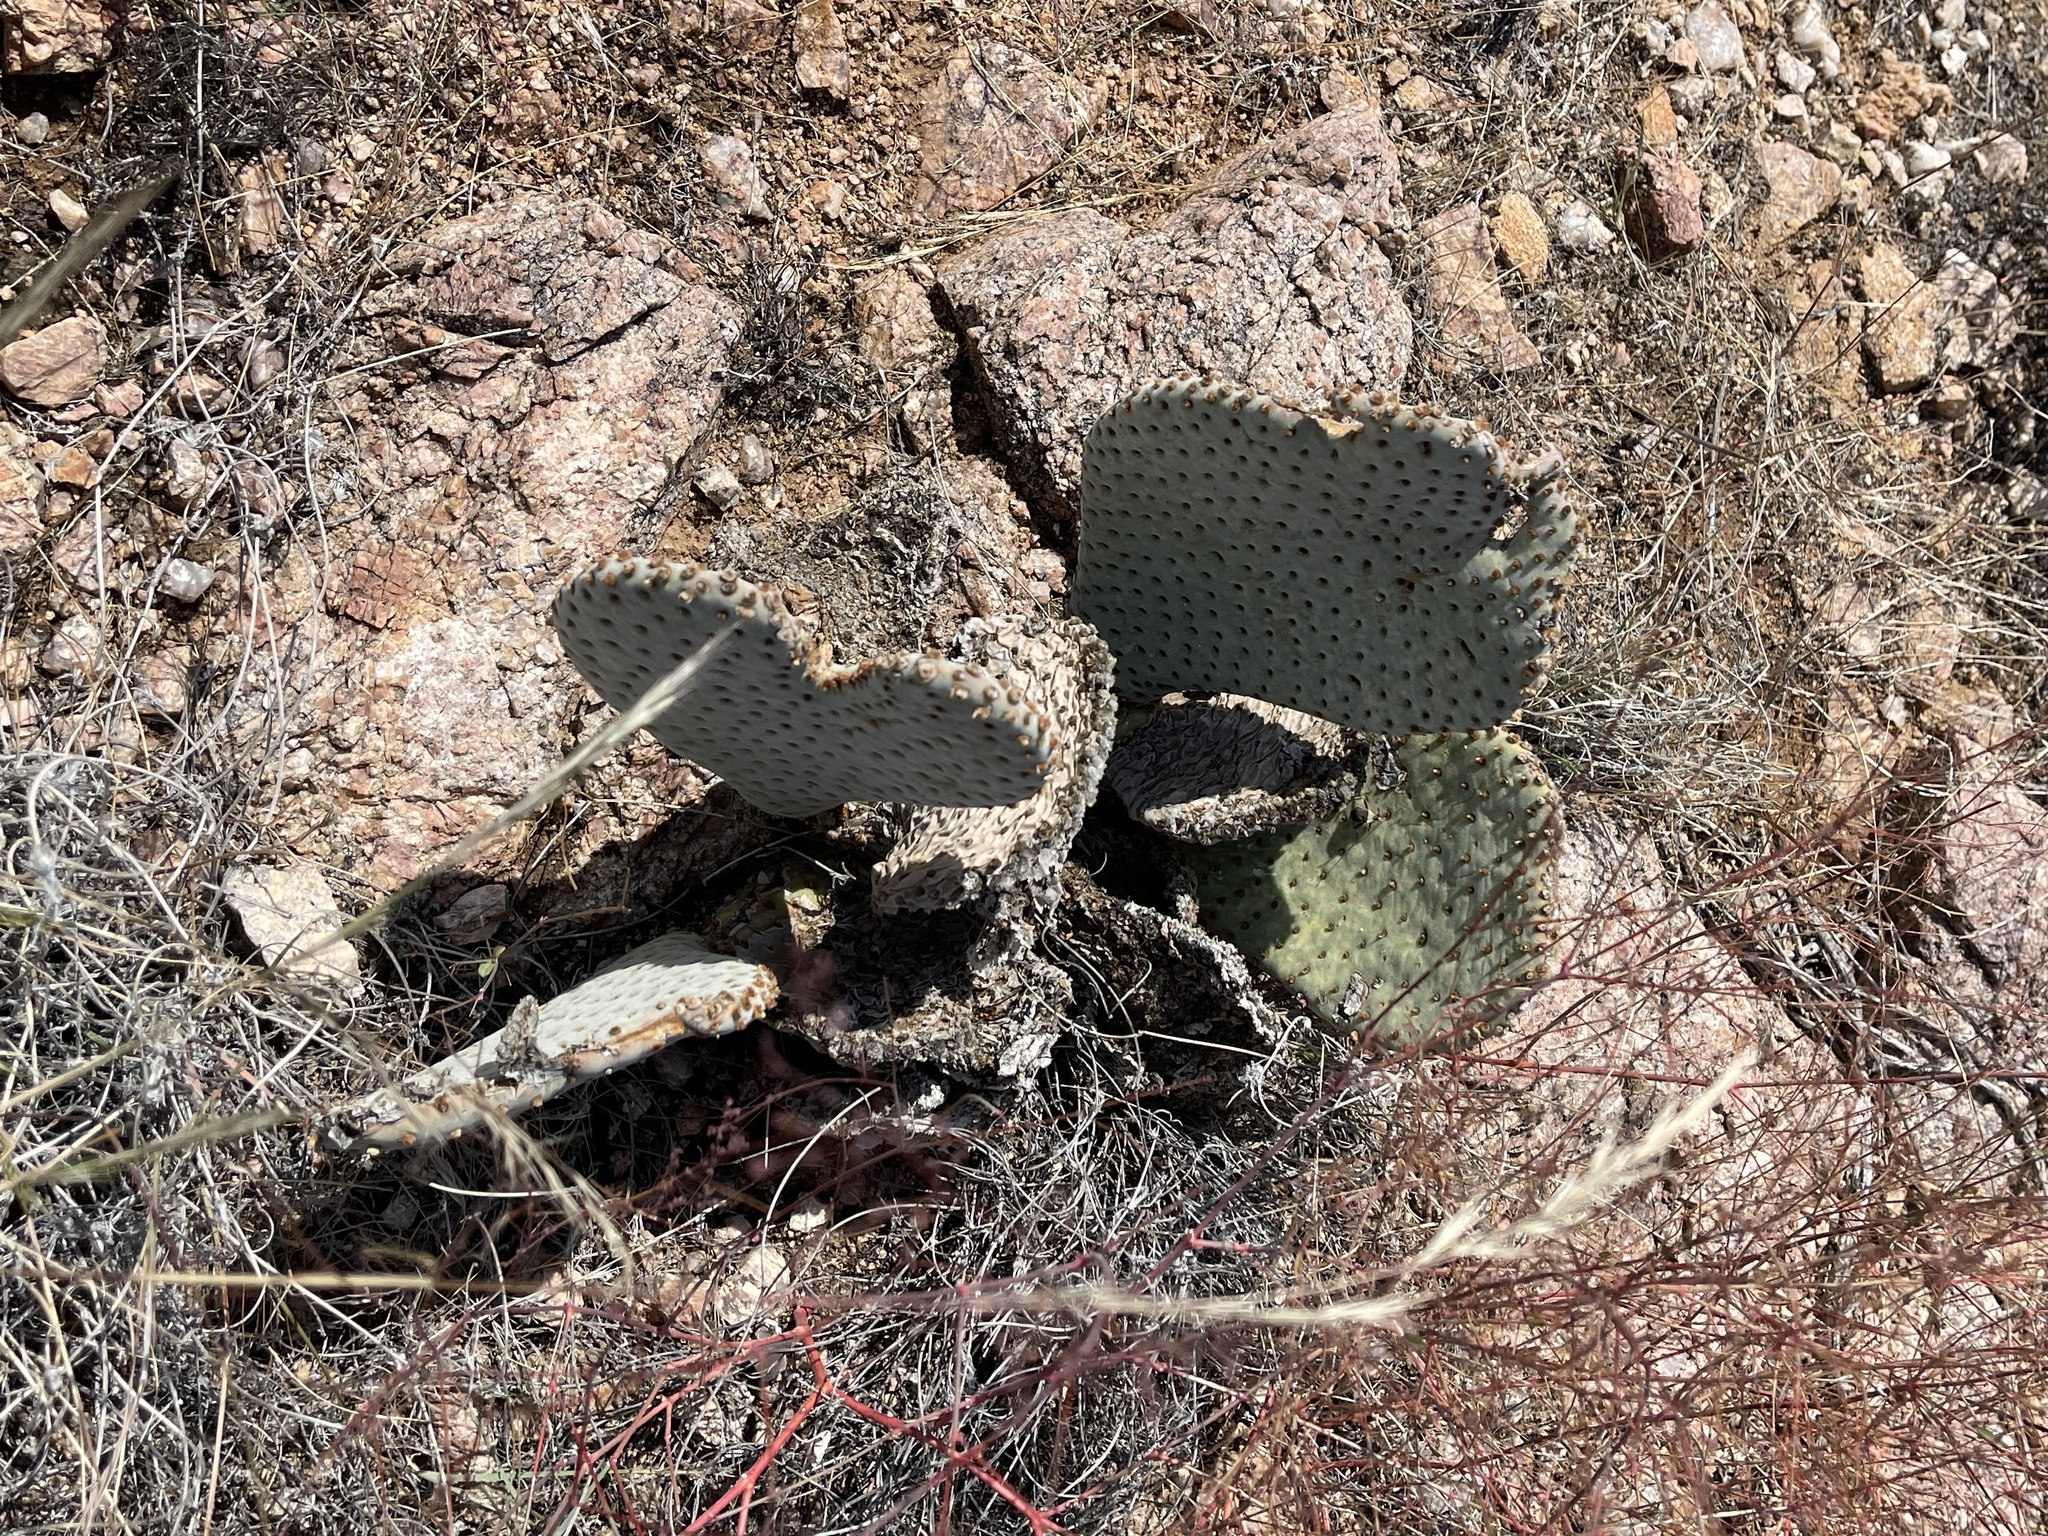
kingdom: Plantae
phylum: Tracheophyta
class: Magnoliopsida
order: Caryophyllales
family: Cactaceae
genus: Opuntia
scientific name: Opuntia basilaris
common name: Beavertail prickly-pear
